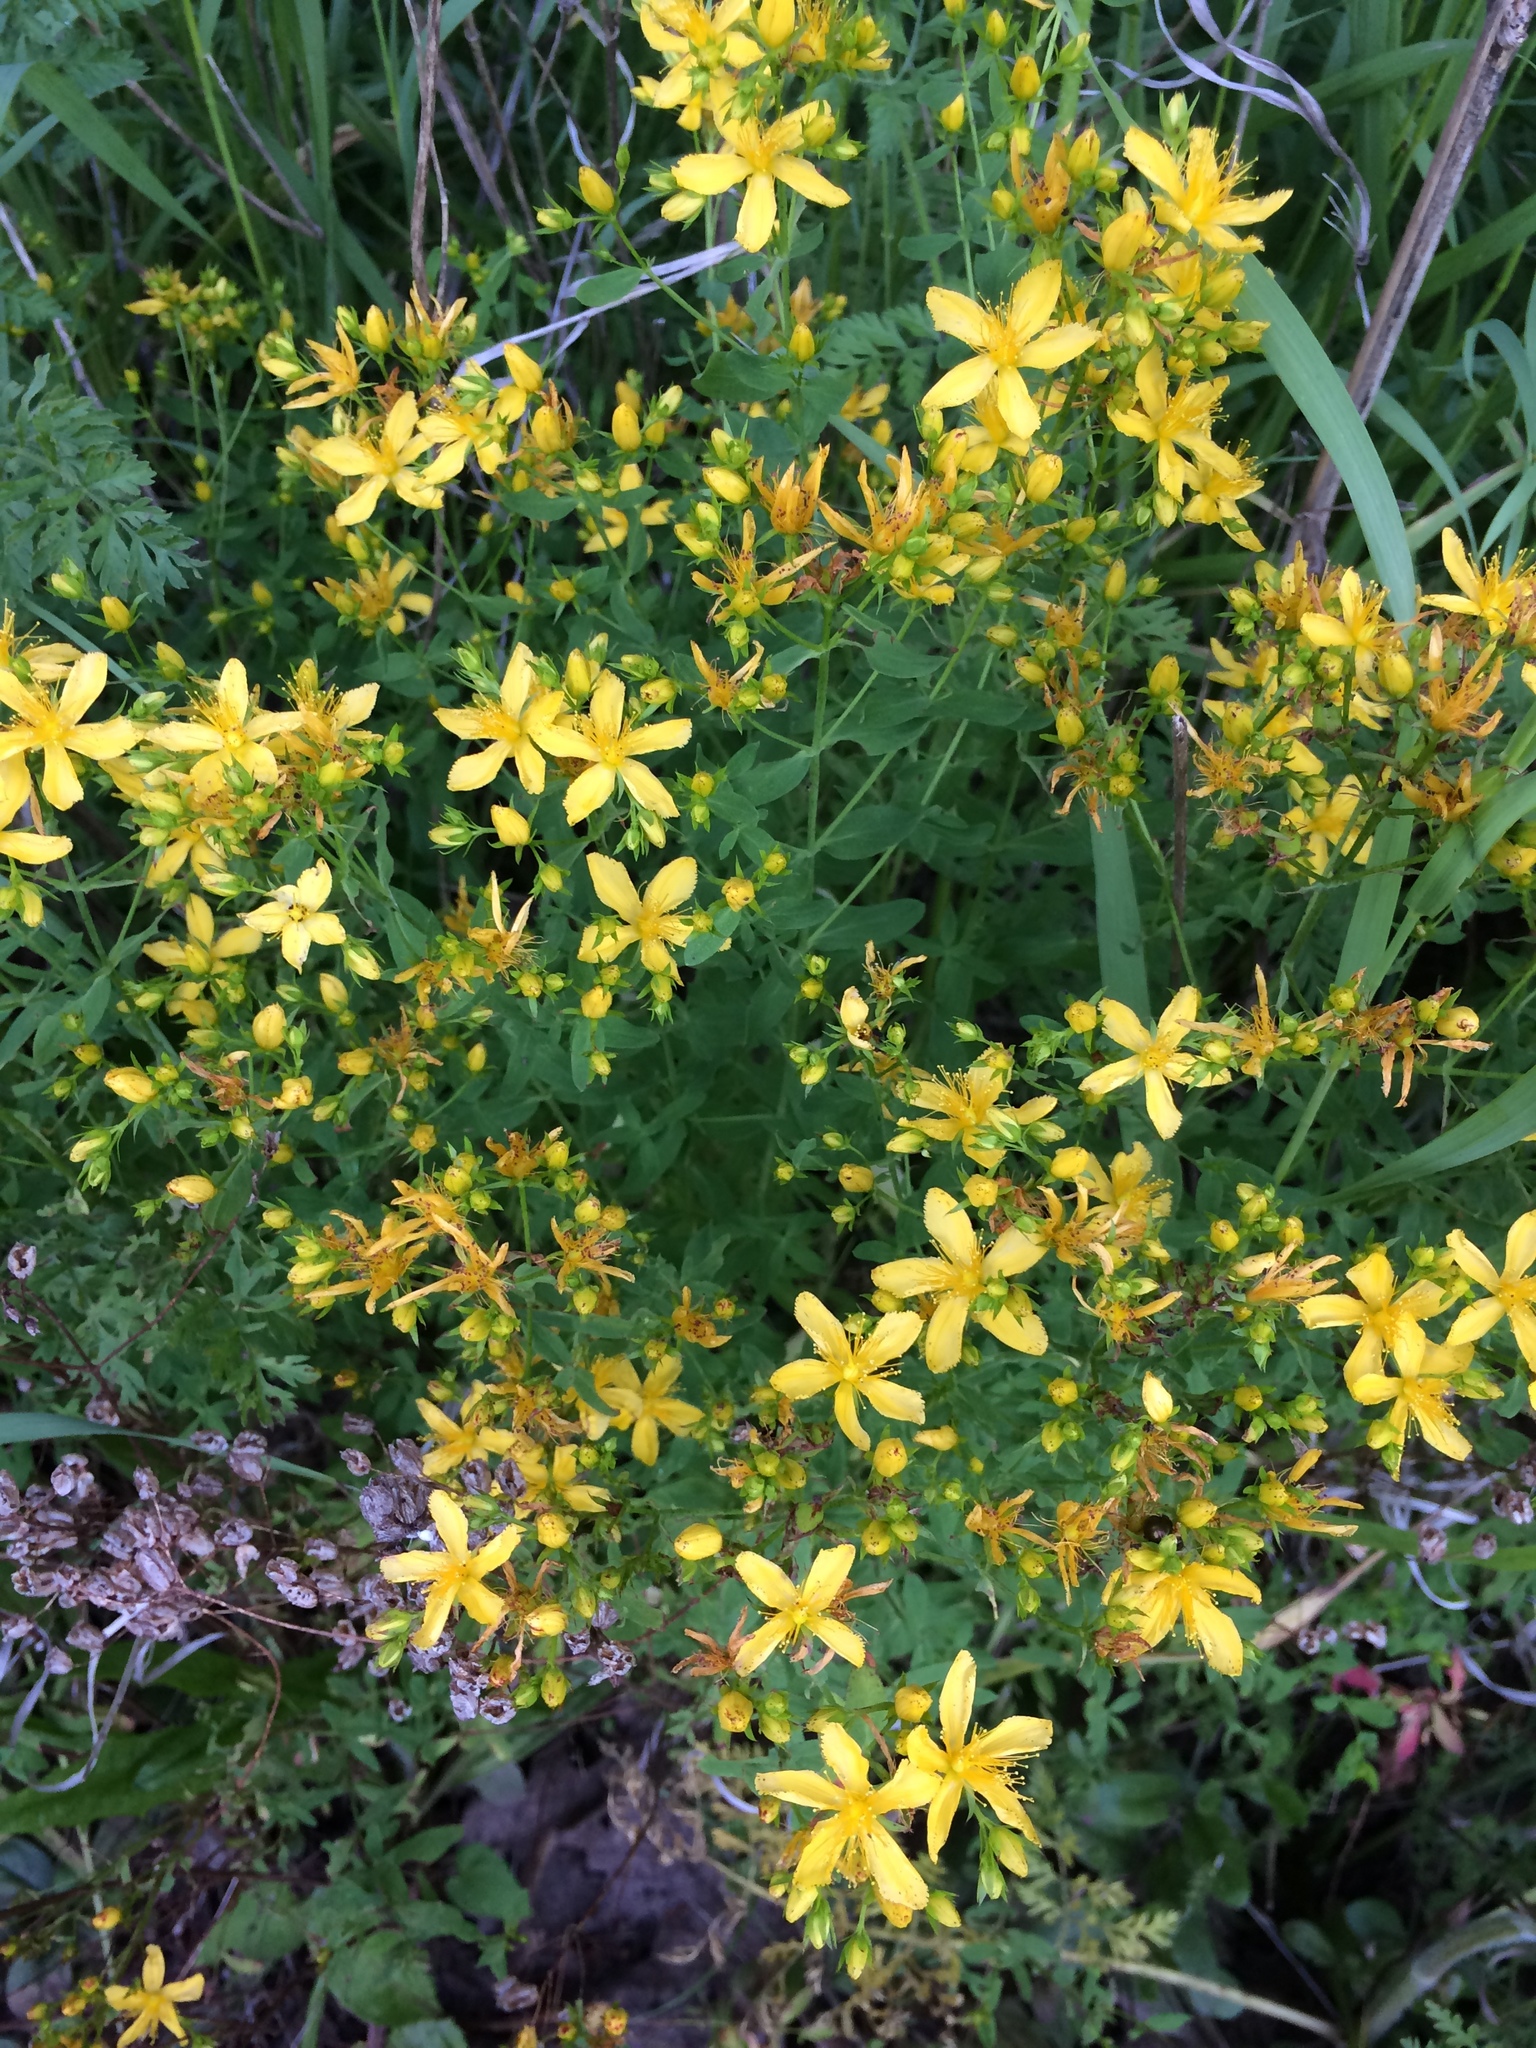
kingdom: Plantae
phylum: Tracheophyta
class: Magnoliopsida
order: Malpighiales
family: Hypericaceae
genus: Hypericum
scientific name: Hypericum perforatum
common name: Common st. johnswort
